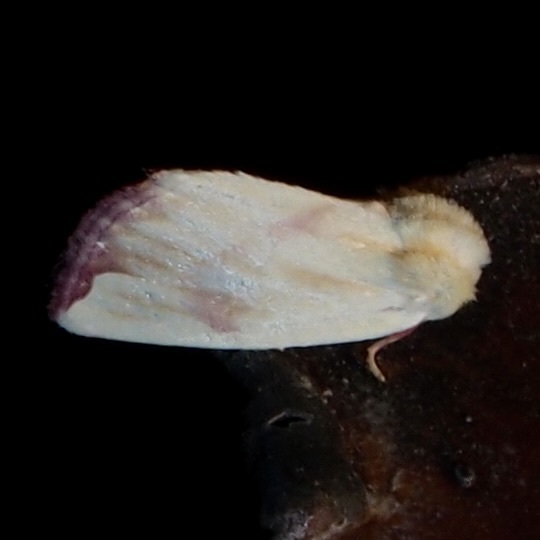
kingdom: Animalia
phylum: Arthropoda
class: Insecta
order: Lepidoptera
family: Noctuidae
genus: Thurberiphaga
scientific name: Thurberiphaga diffusa
